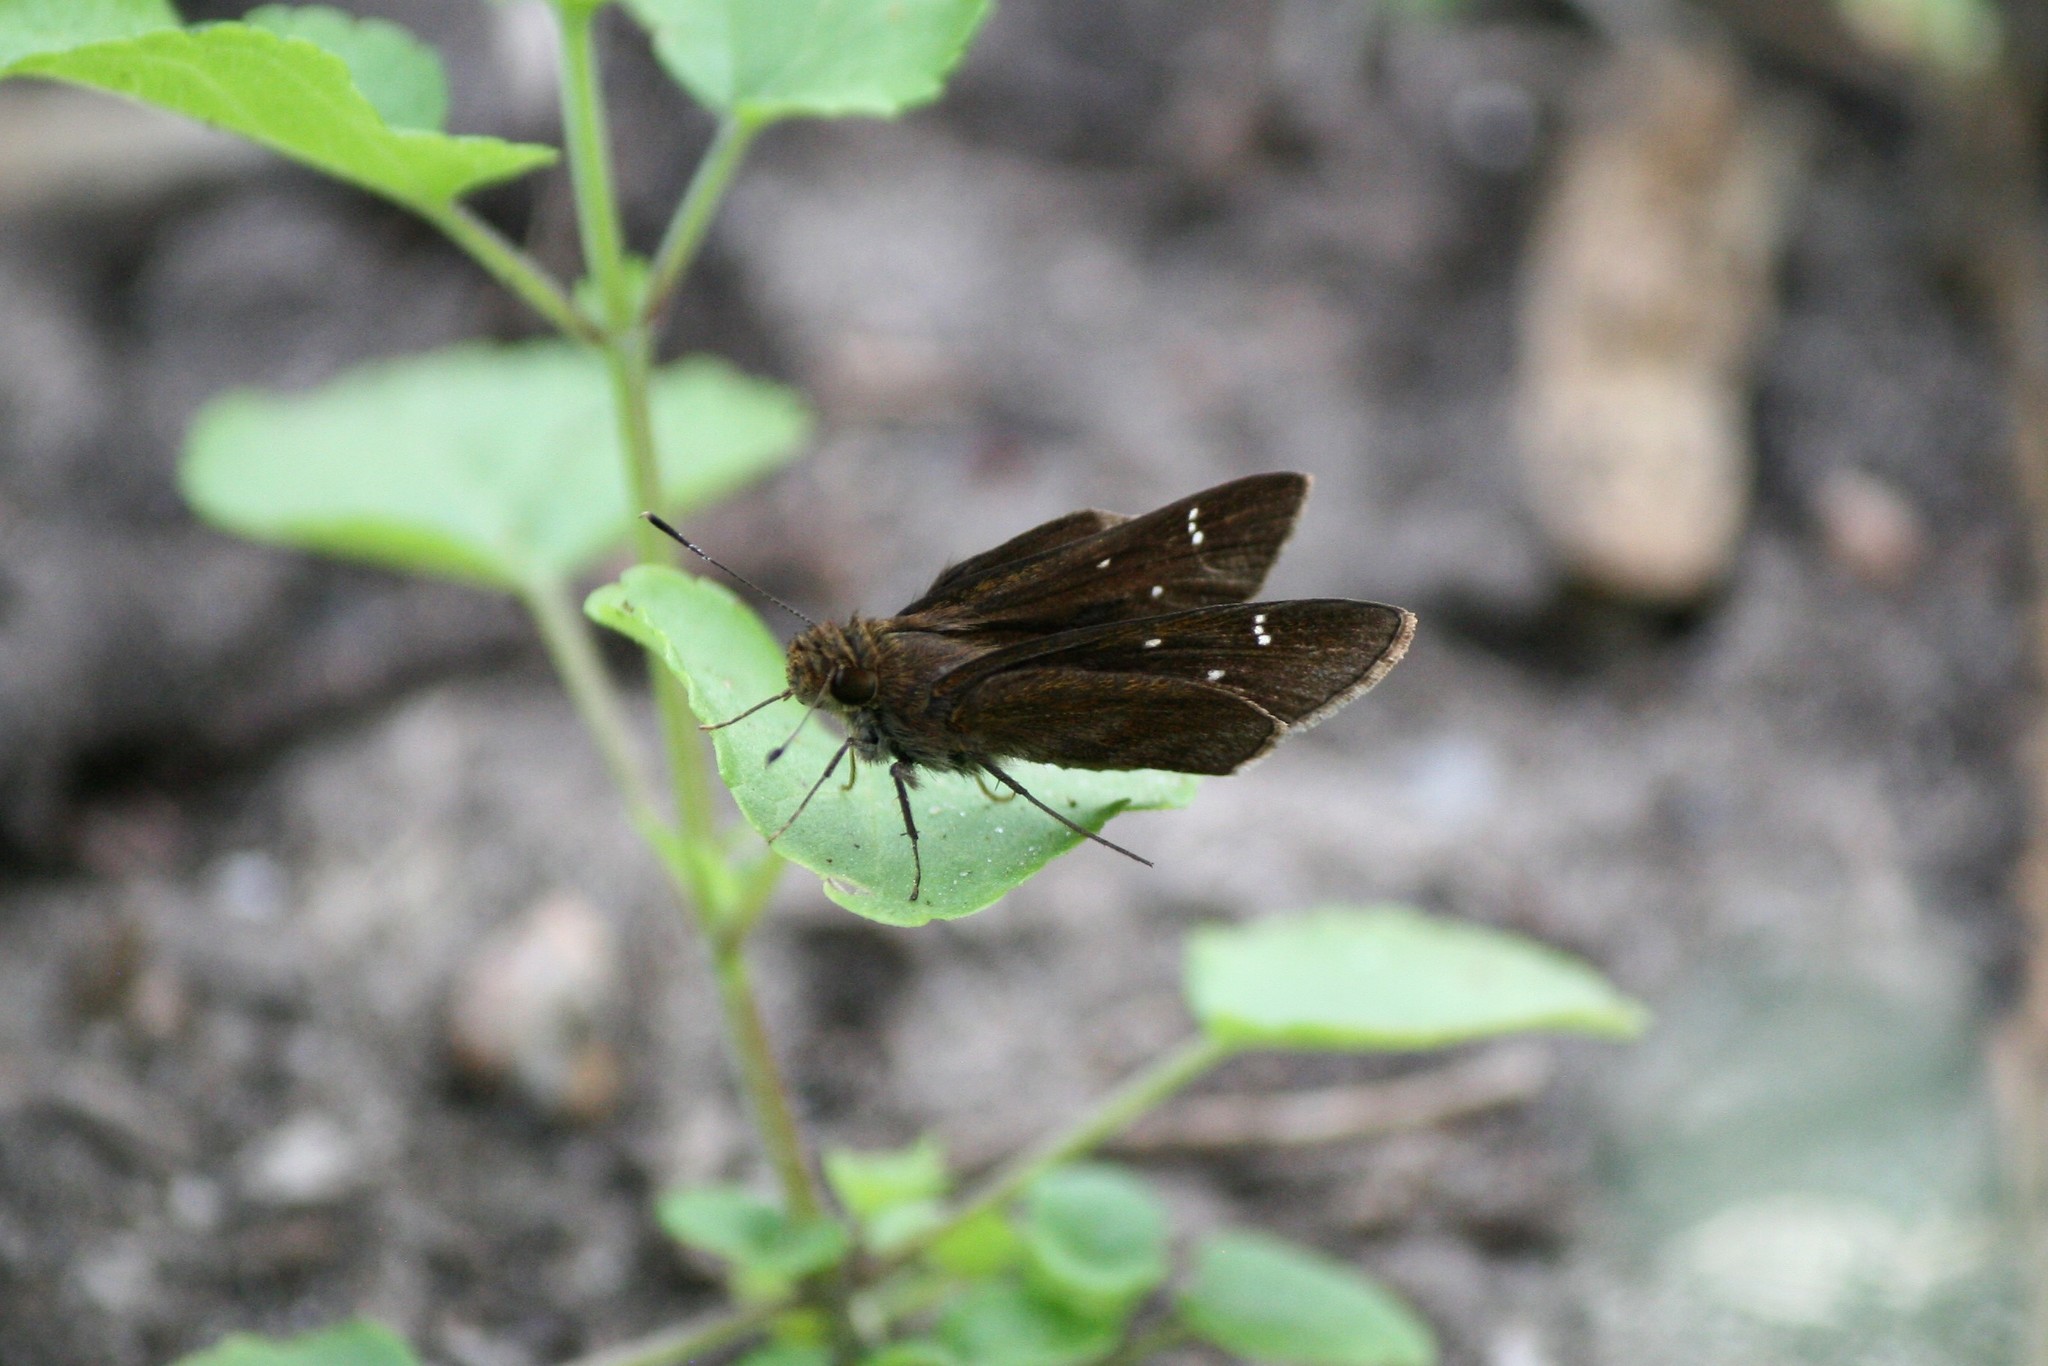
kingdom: Animalia
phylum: Arthropoda
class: Insecta
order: Lepidoptera
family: Hesperiidae
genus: Lerema
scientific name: Lerema accius
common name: Clouded skipper
